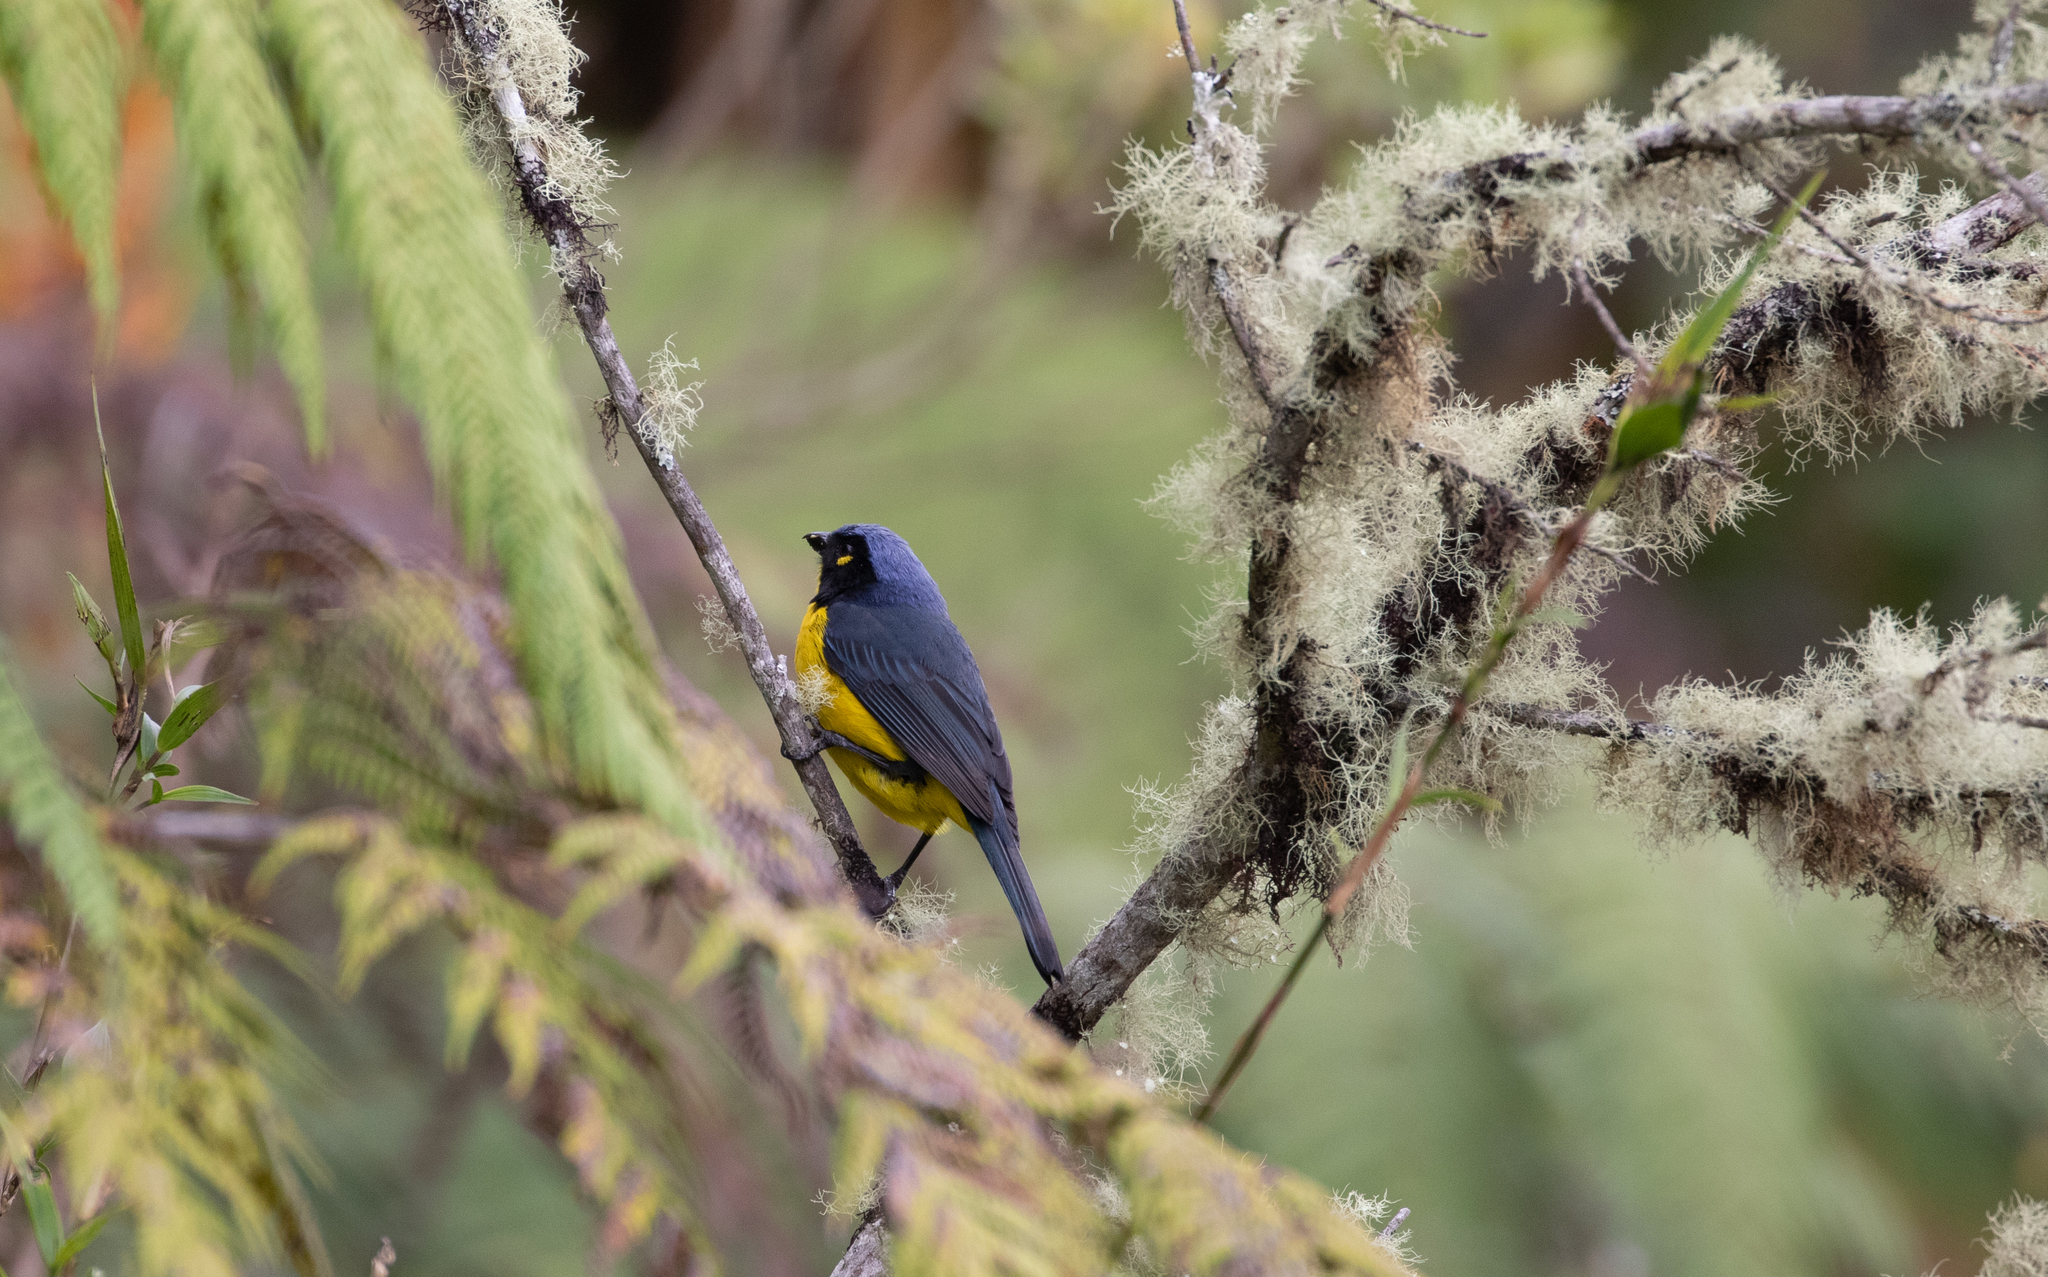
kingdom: Animalia
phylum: Chordata
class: Aves
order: Passeriformes
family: Thraupidae
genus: Anisognathus
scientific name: Anisognathus melanogenys
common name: Santa marta mountain tanager
